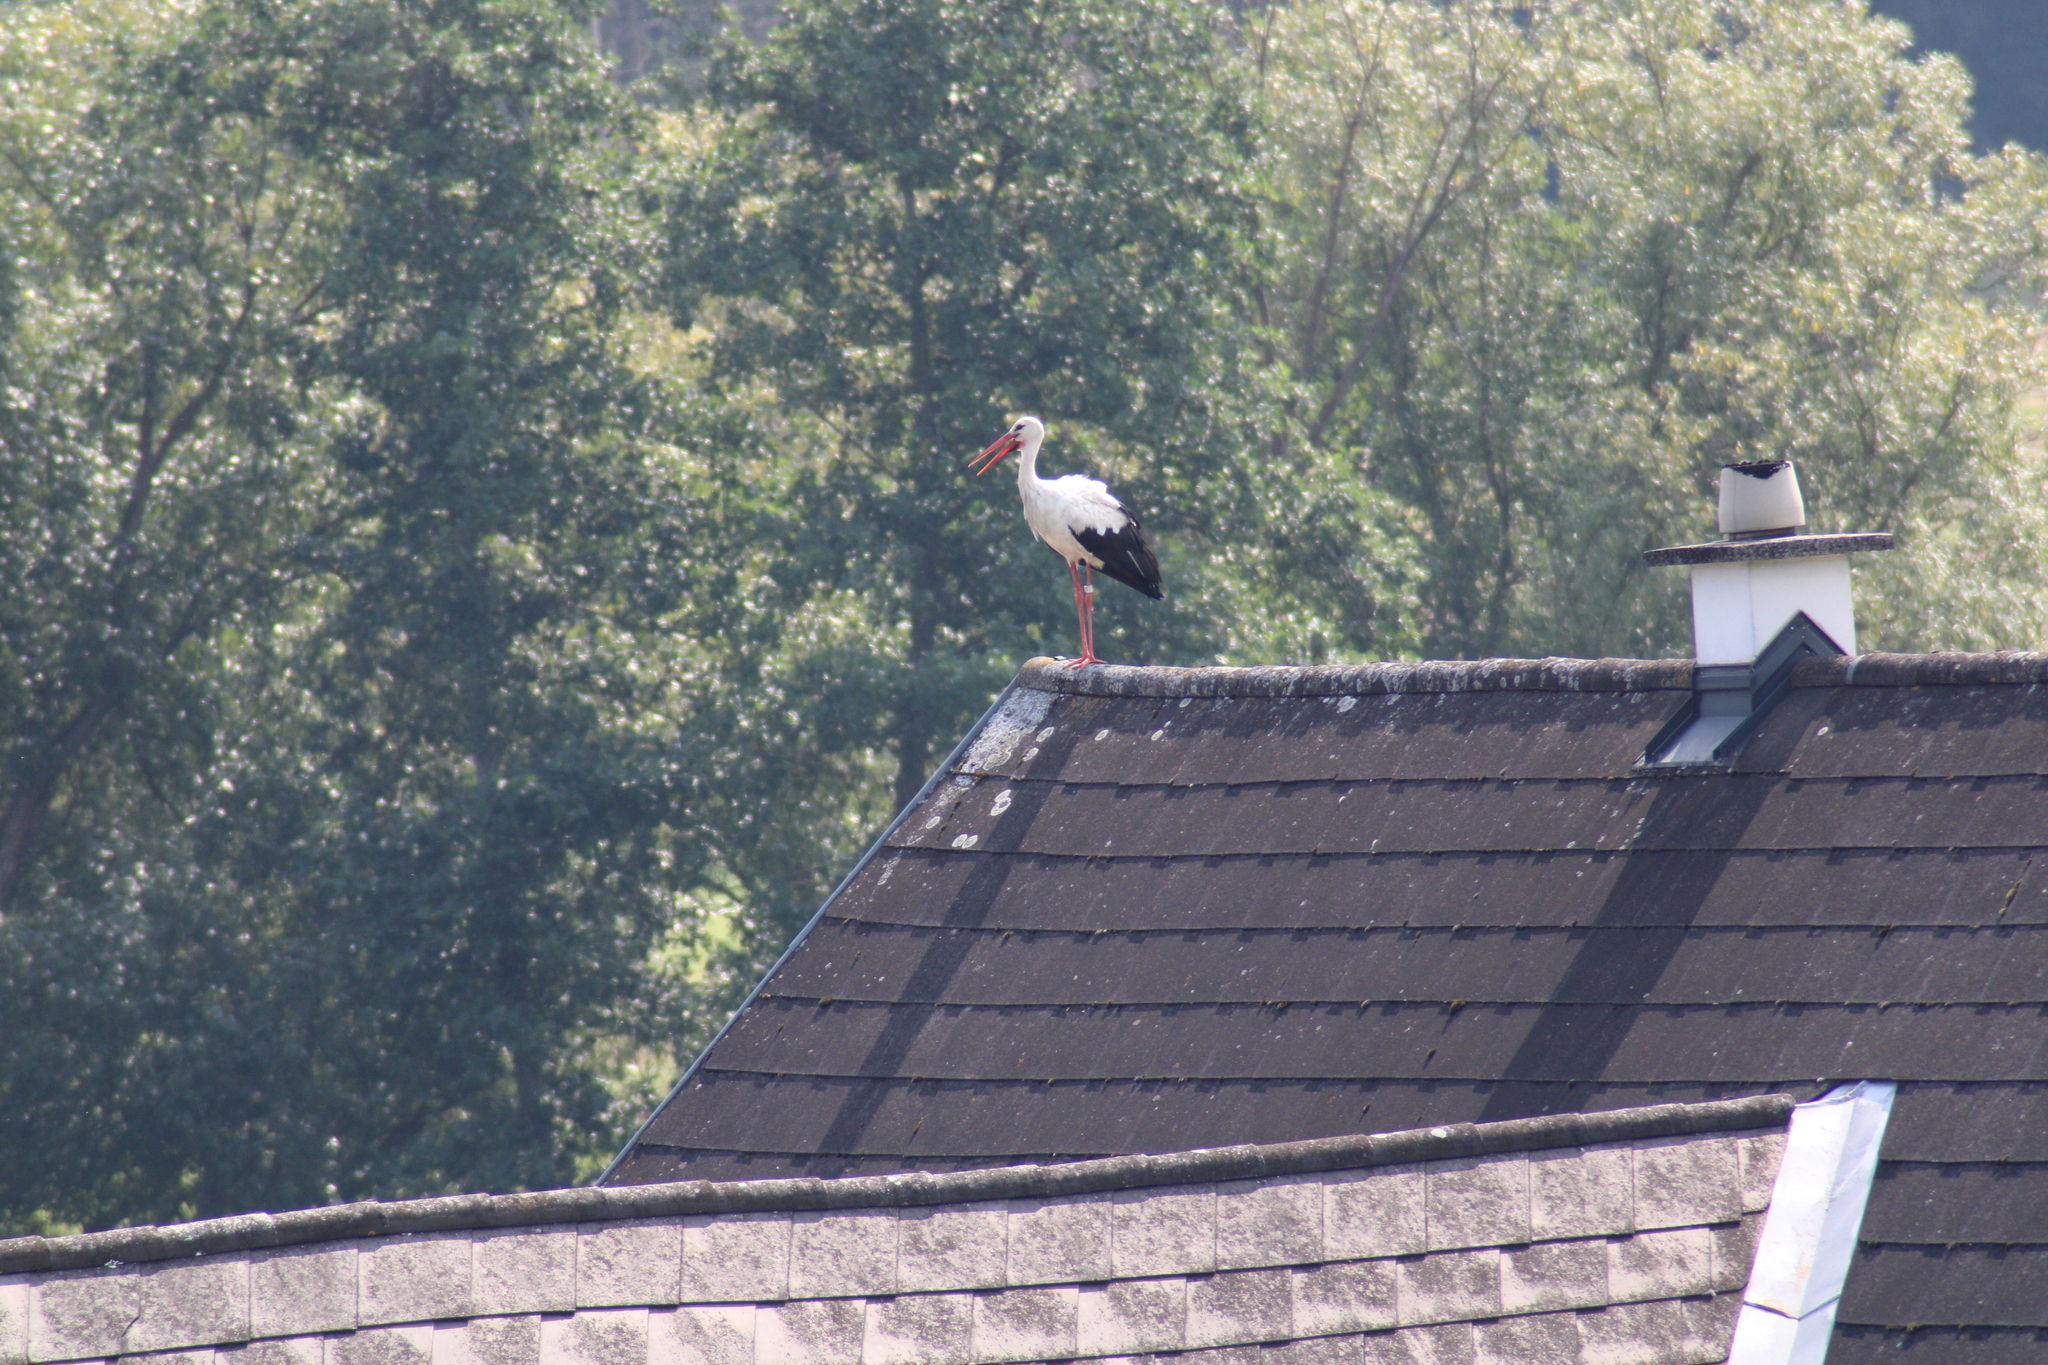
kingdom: Animalia
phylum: Chordata
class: Aves
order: Ciconiiformes
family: Ciconiidae
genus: Ciconia
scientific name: Ciconia ciconia
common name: White stork
